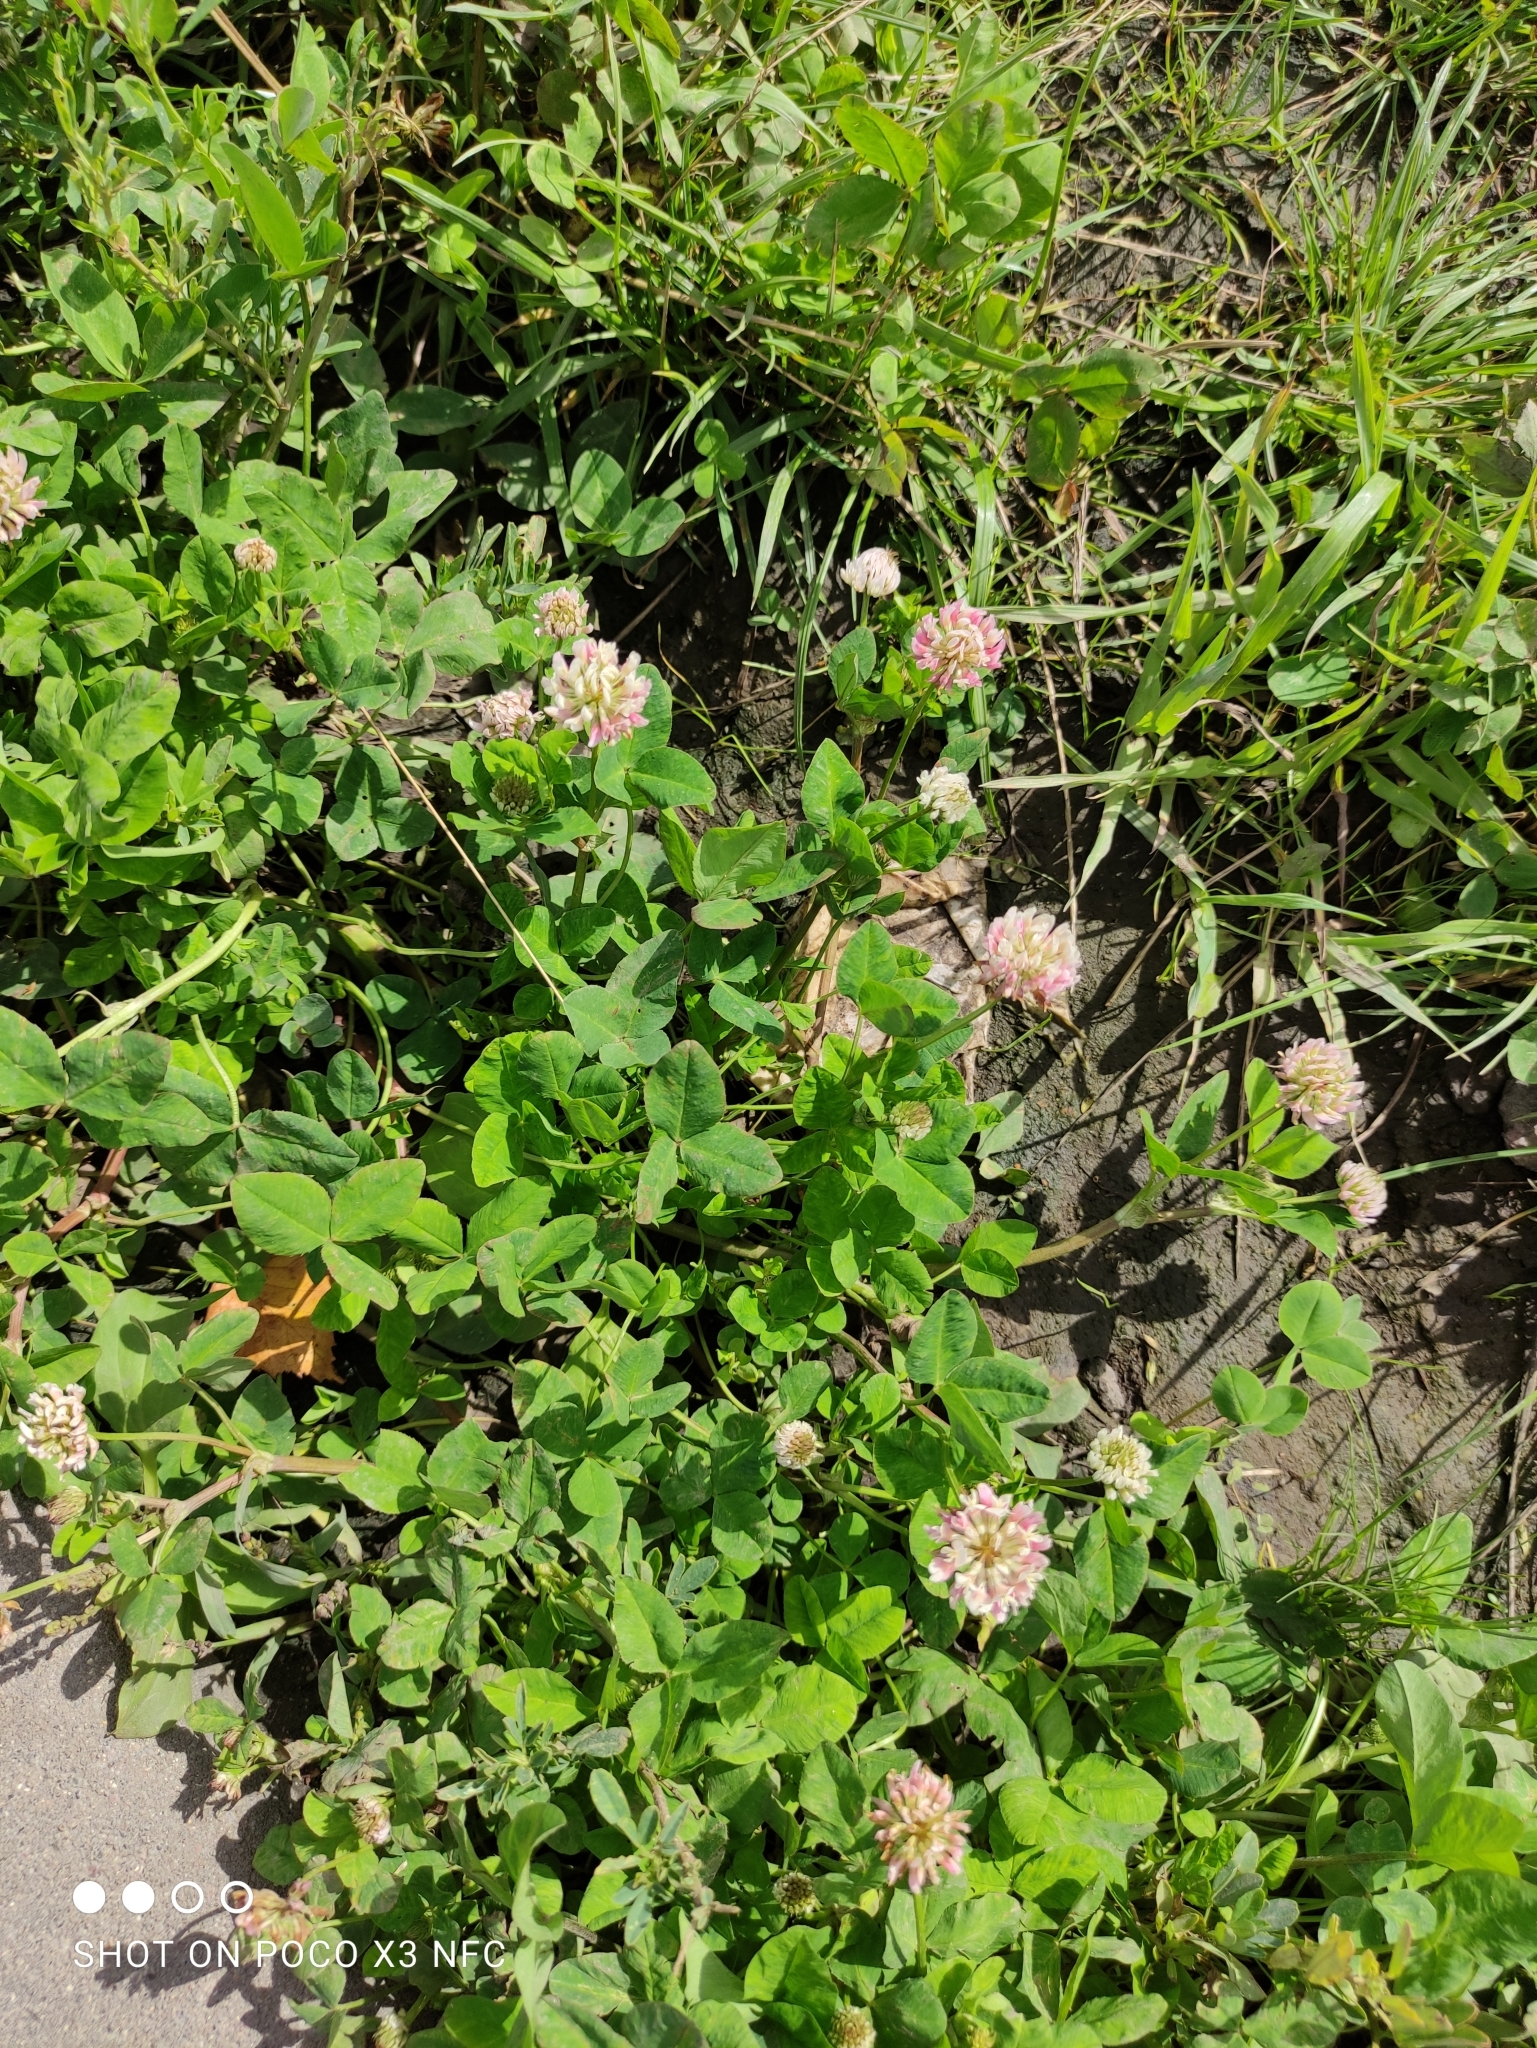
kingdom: Plantae
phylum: Tracheophyta
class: Magnoliopsida
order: Fabales
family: Fabaceae
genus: Trifolium
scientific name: Trifolium hybridum
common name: Alsike clover
